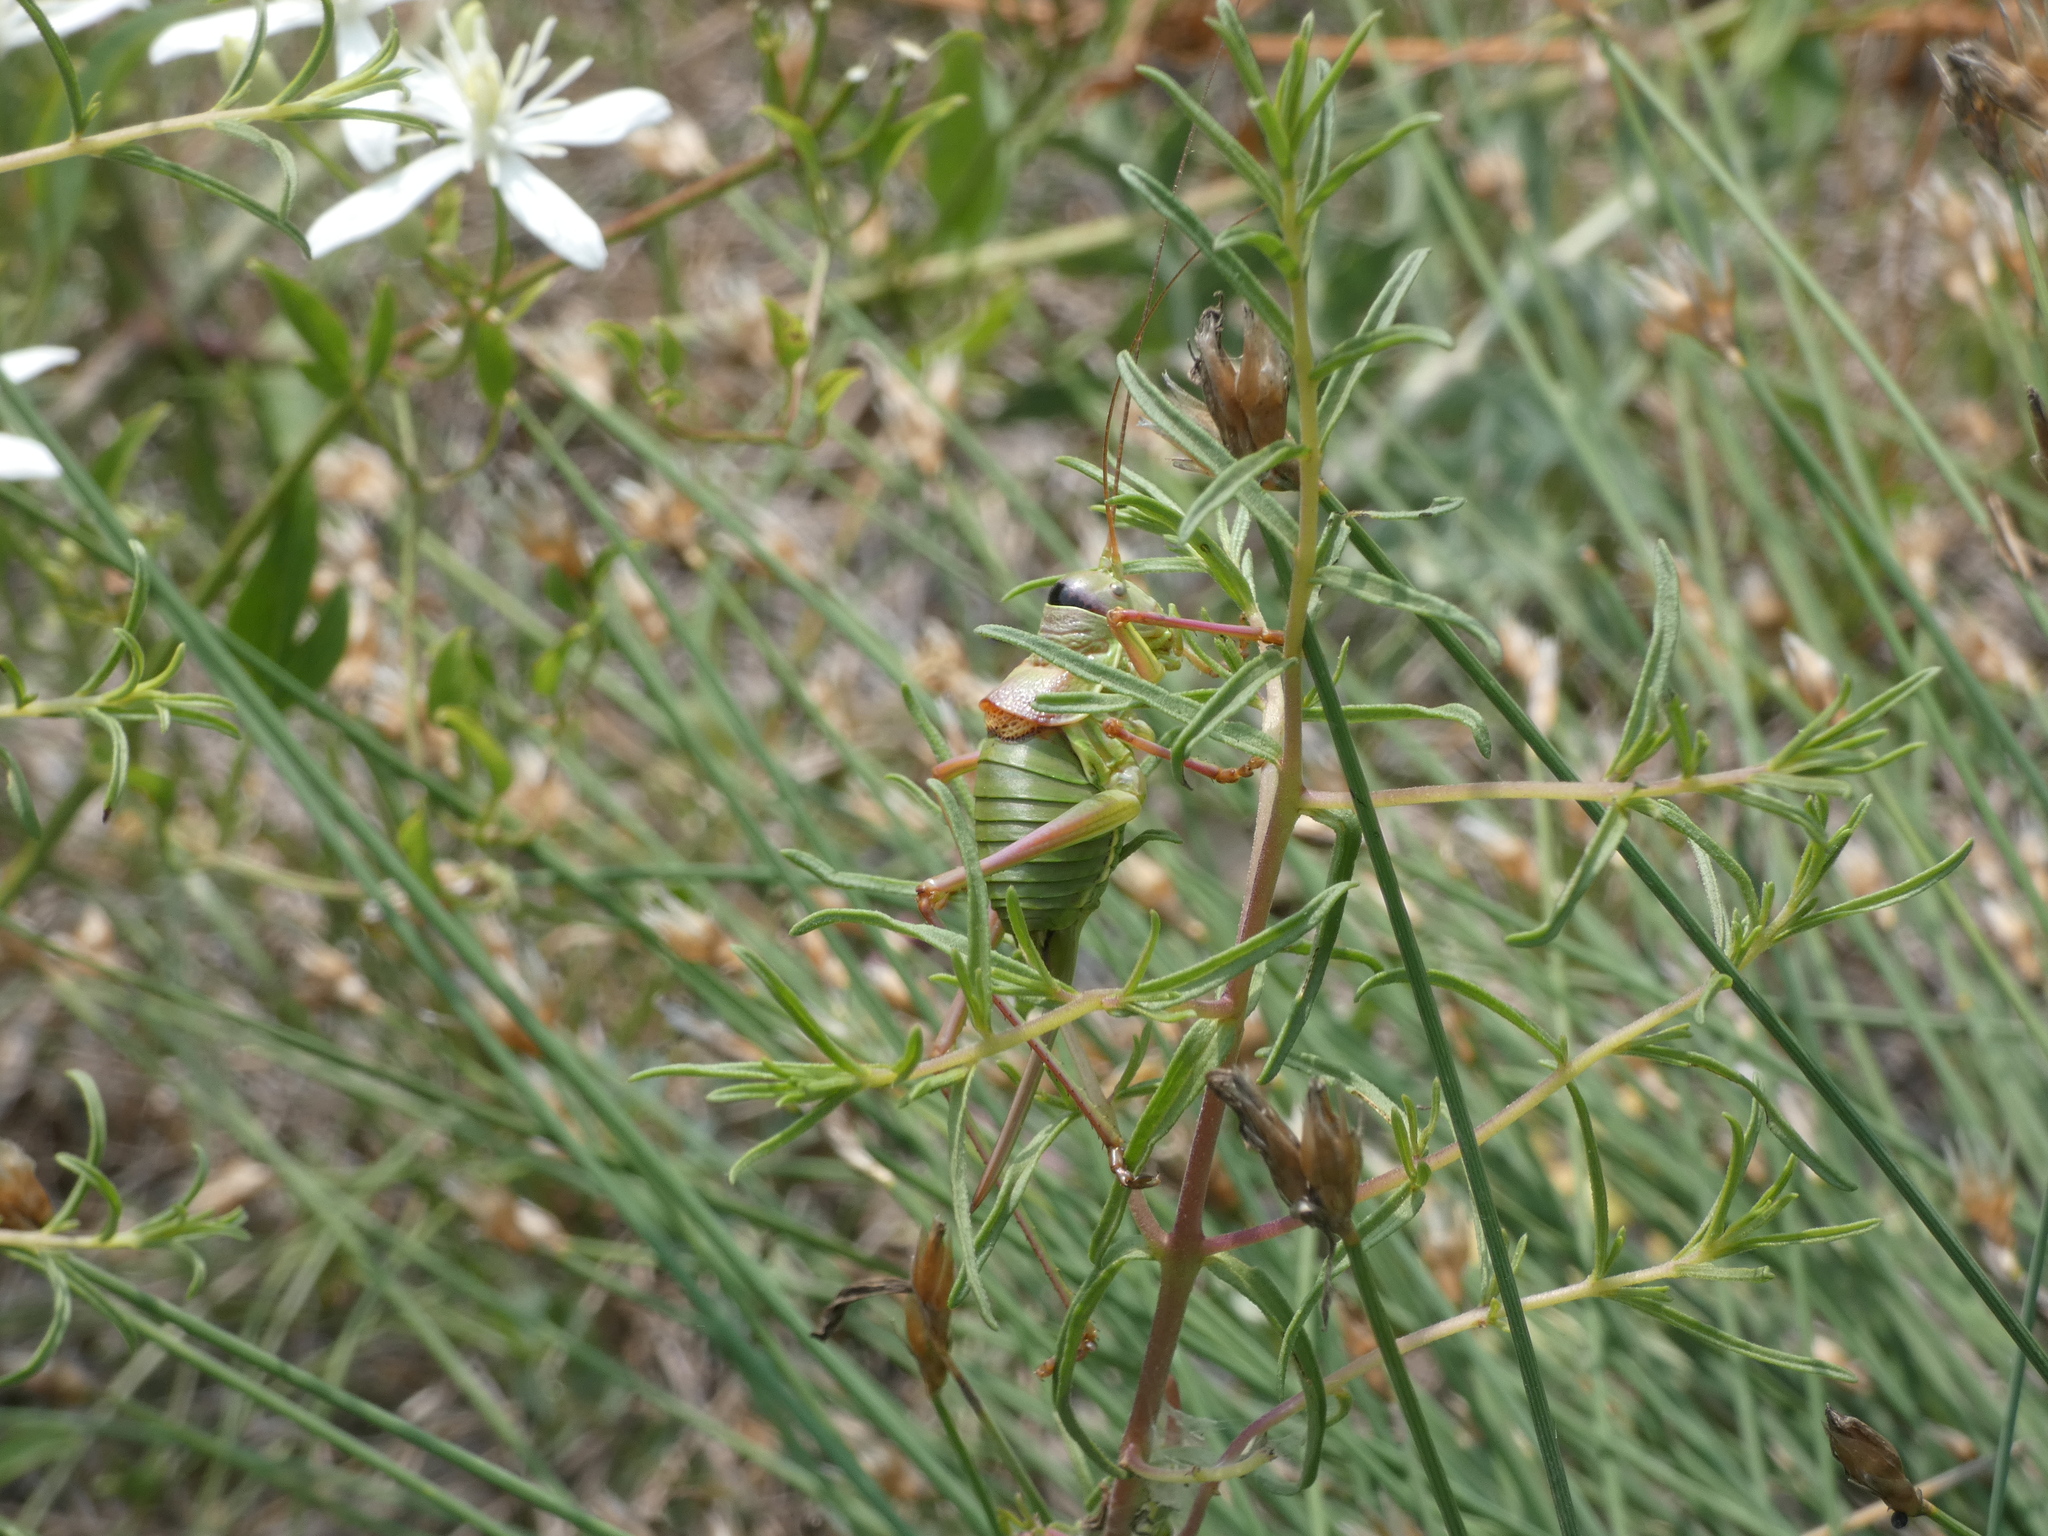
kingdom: Animalia
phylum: Arthropoda
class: Insecta
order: Orthoptera
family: Tettigoniidae
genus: Ephippiger
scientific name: Ephippiger diurnus
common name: Western saddle bush-cricket
